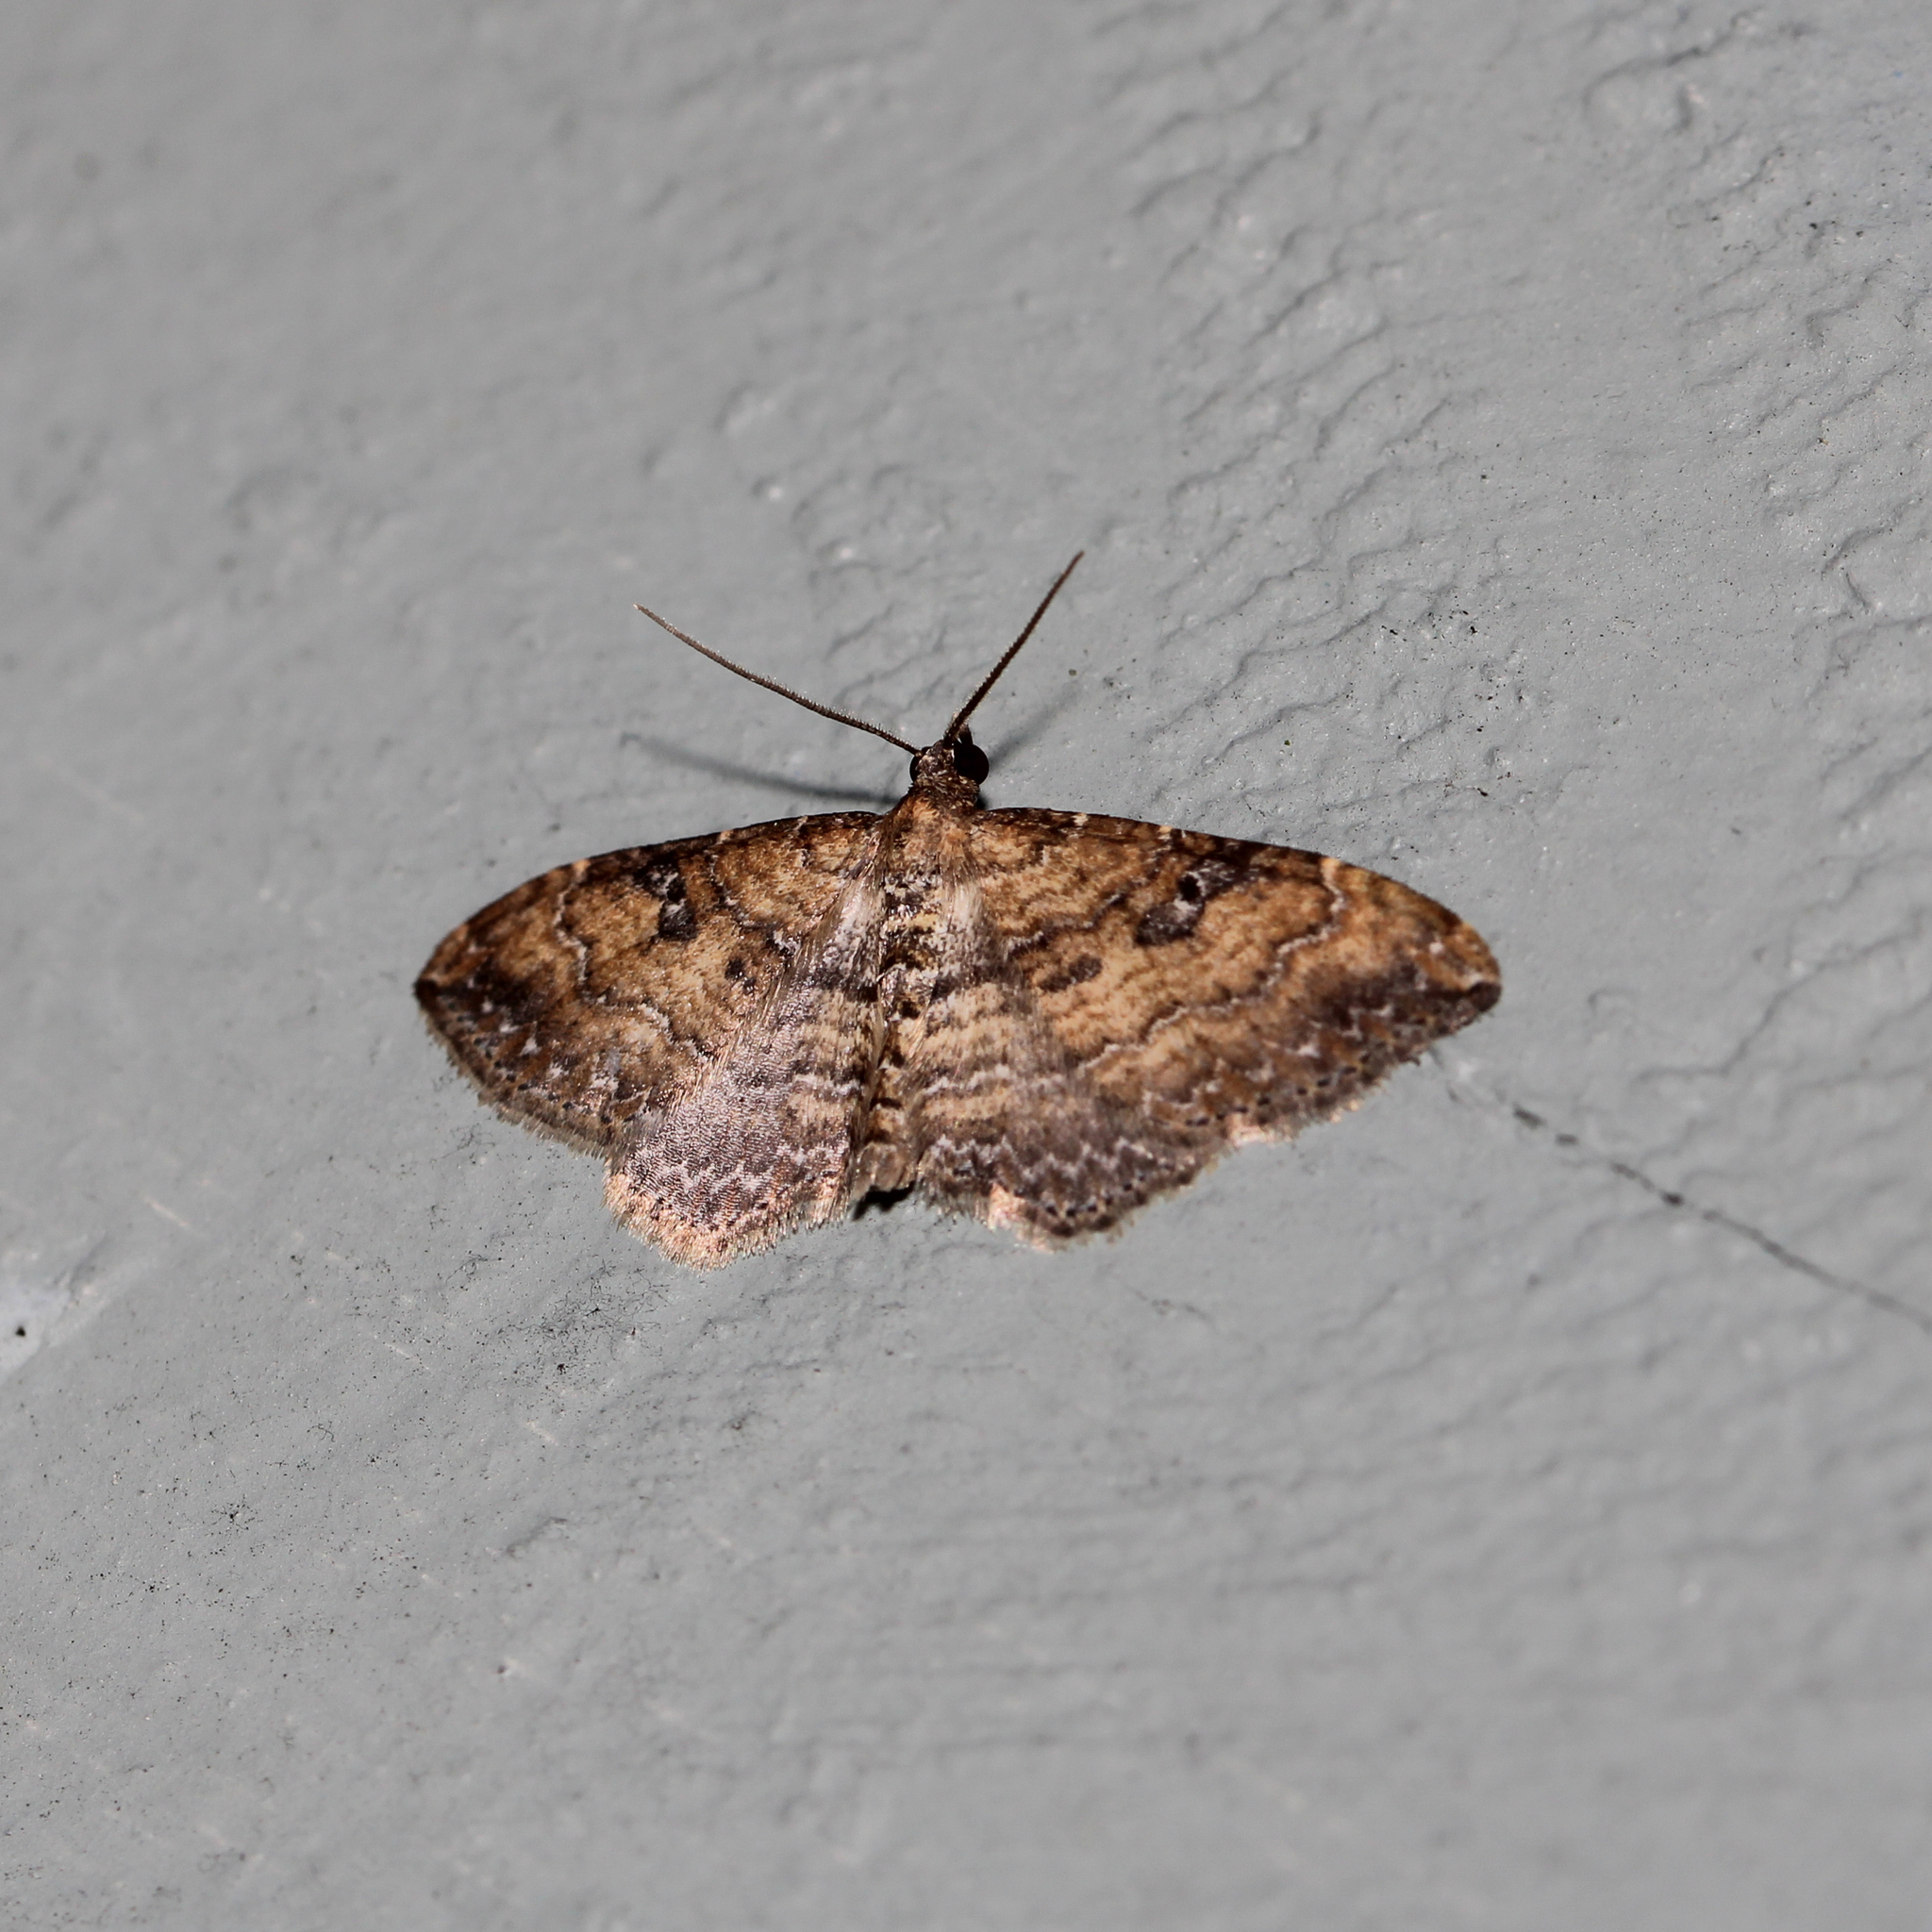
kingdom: Animalia
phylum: Arthropoda
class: Insecta
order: Lepidoptera
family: Geometridae
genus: Orthonama
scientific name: Orthonama obstipata
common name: The gem
